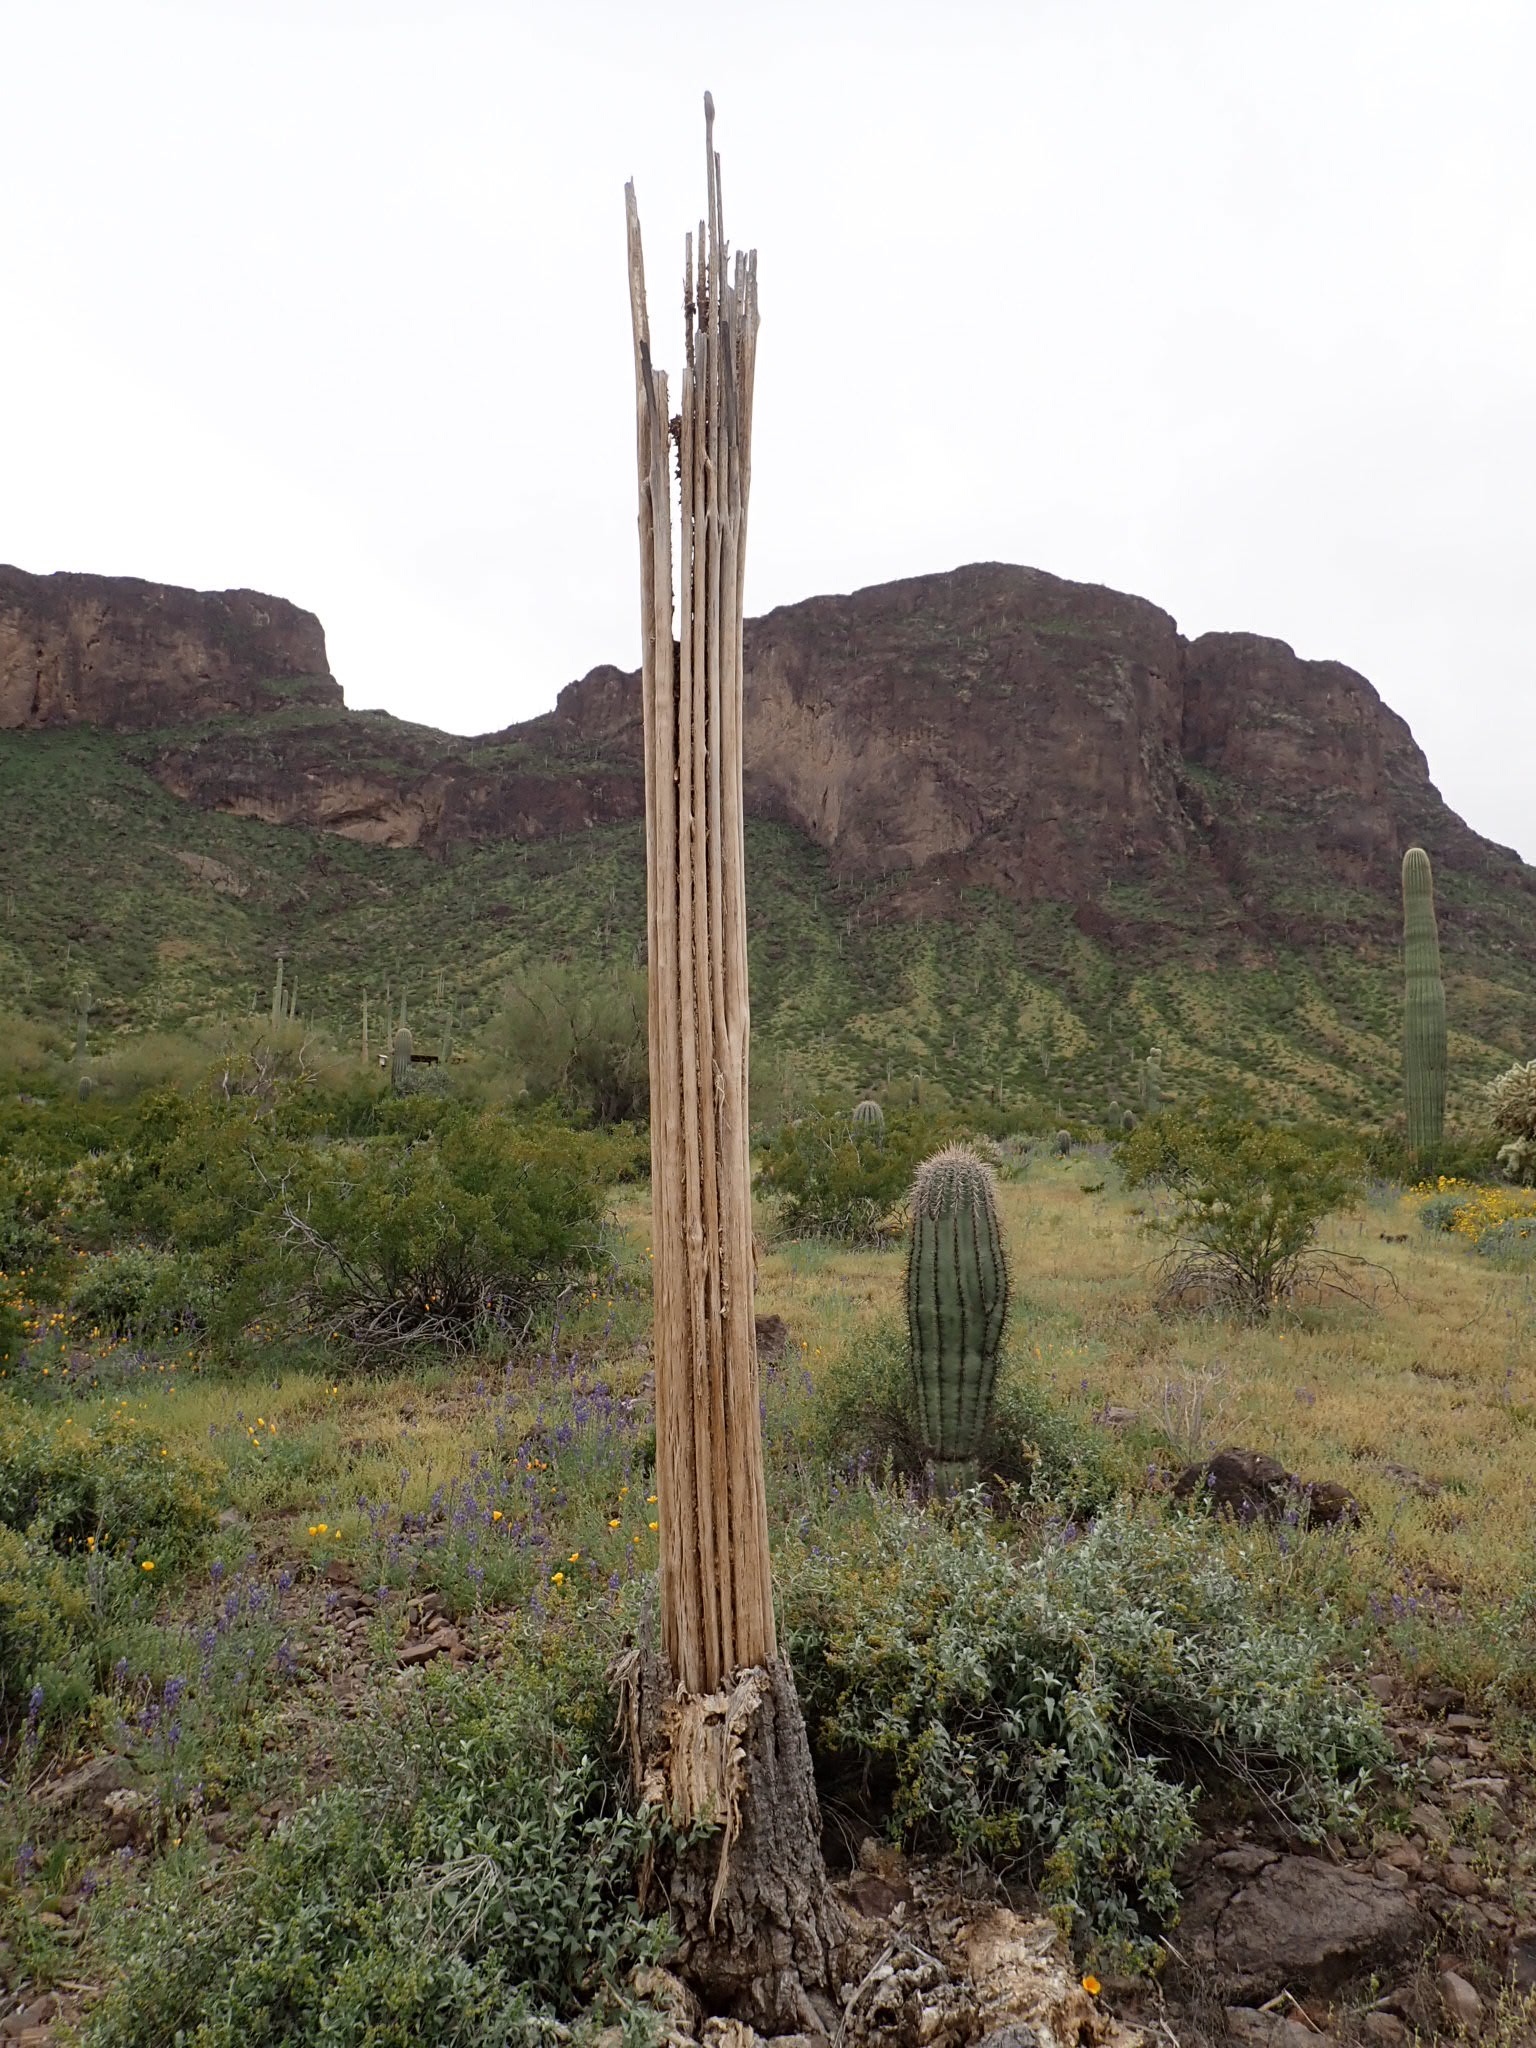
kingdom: Plantae
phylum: Tracheophyta
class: Magnoliopsida
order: Caryophyllales
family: Cactaceae
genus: Carnegiea
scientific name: Carnegiea gigantea
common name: Saguaro
